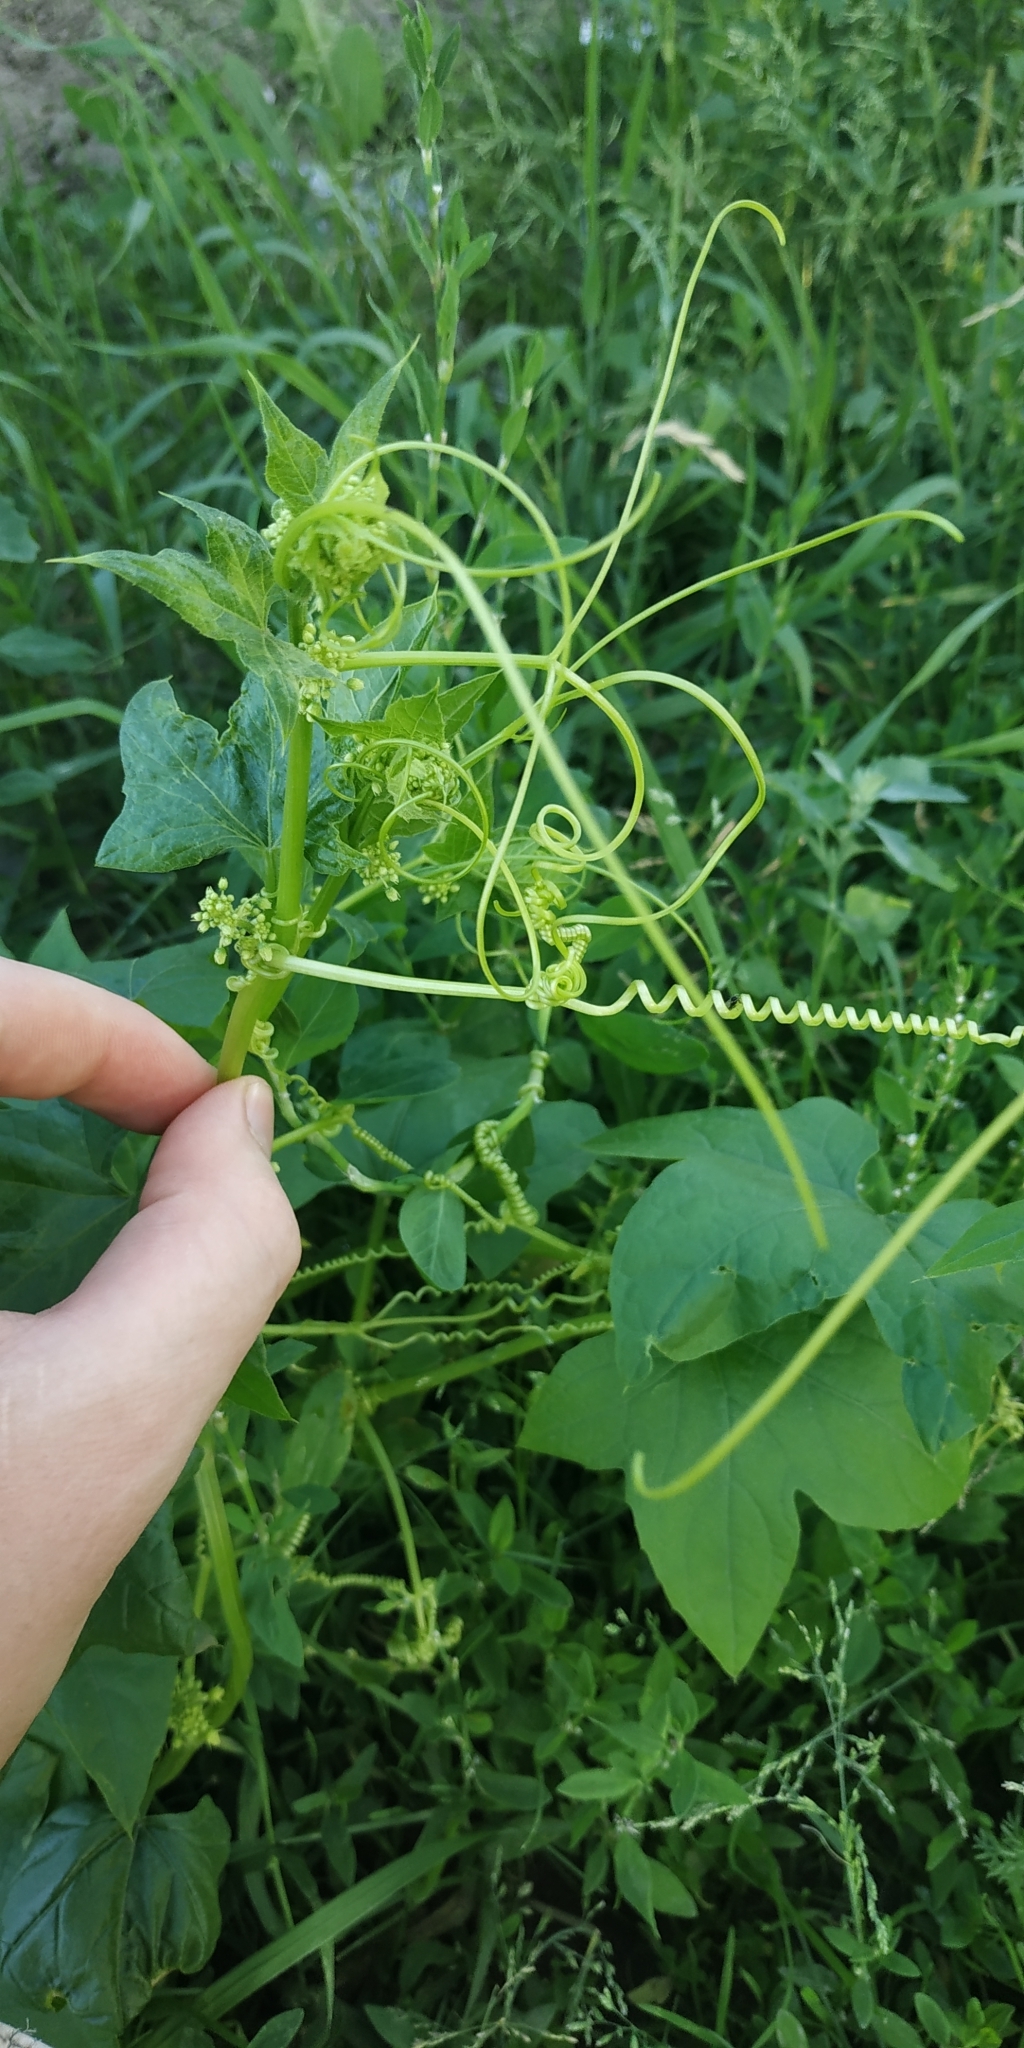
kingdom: Plantae
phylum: Tracheophyta
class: Magnoliopsida
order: Cucurbitales
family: Cucurbitaceae
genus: Echinocystis
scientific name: Echinocystis lobata
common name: Wild cucumber
